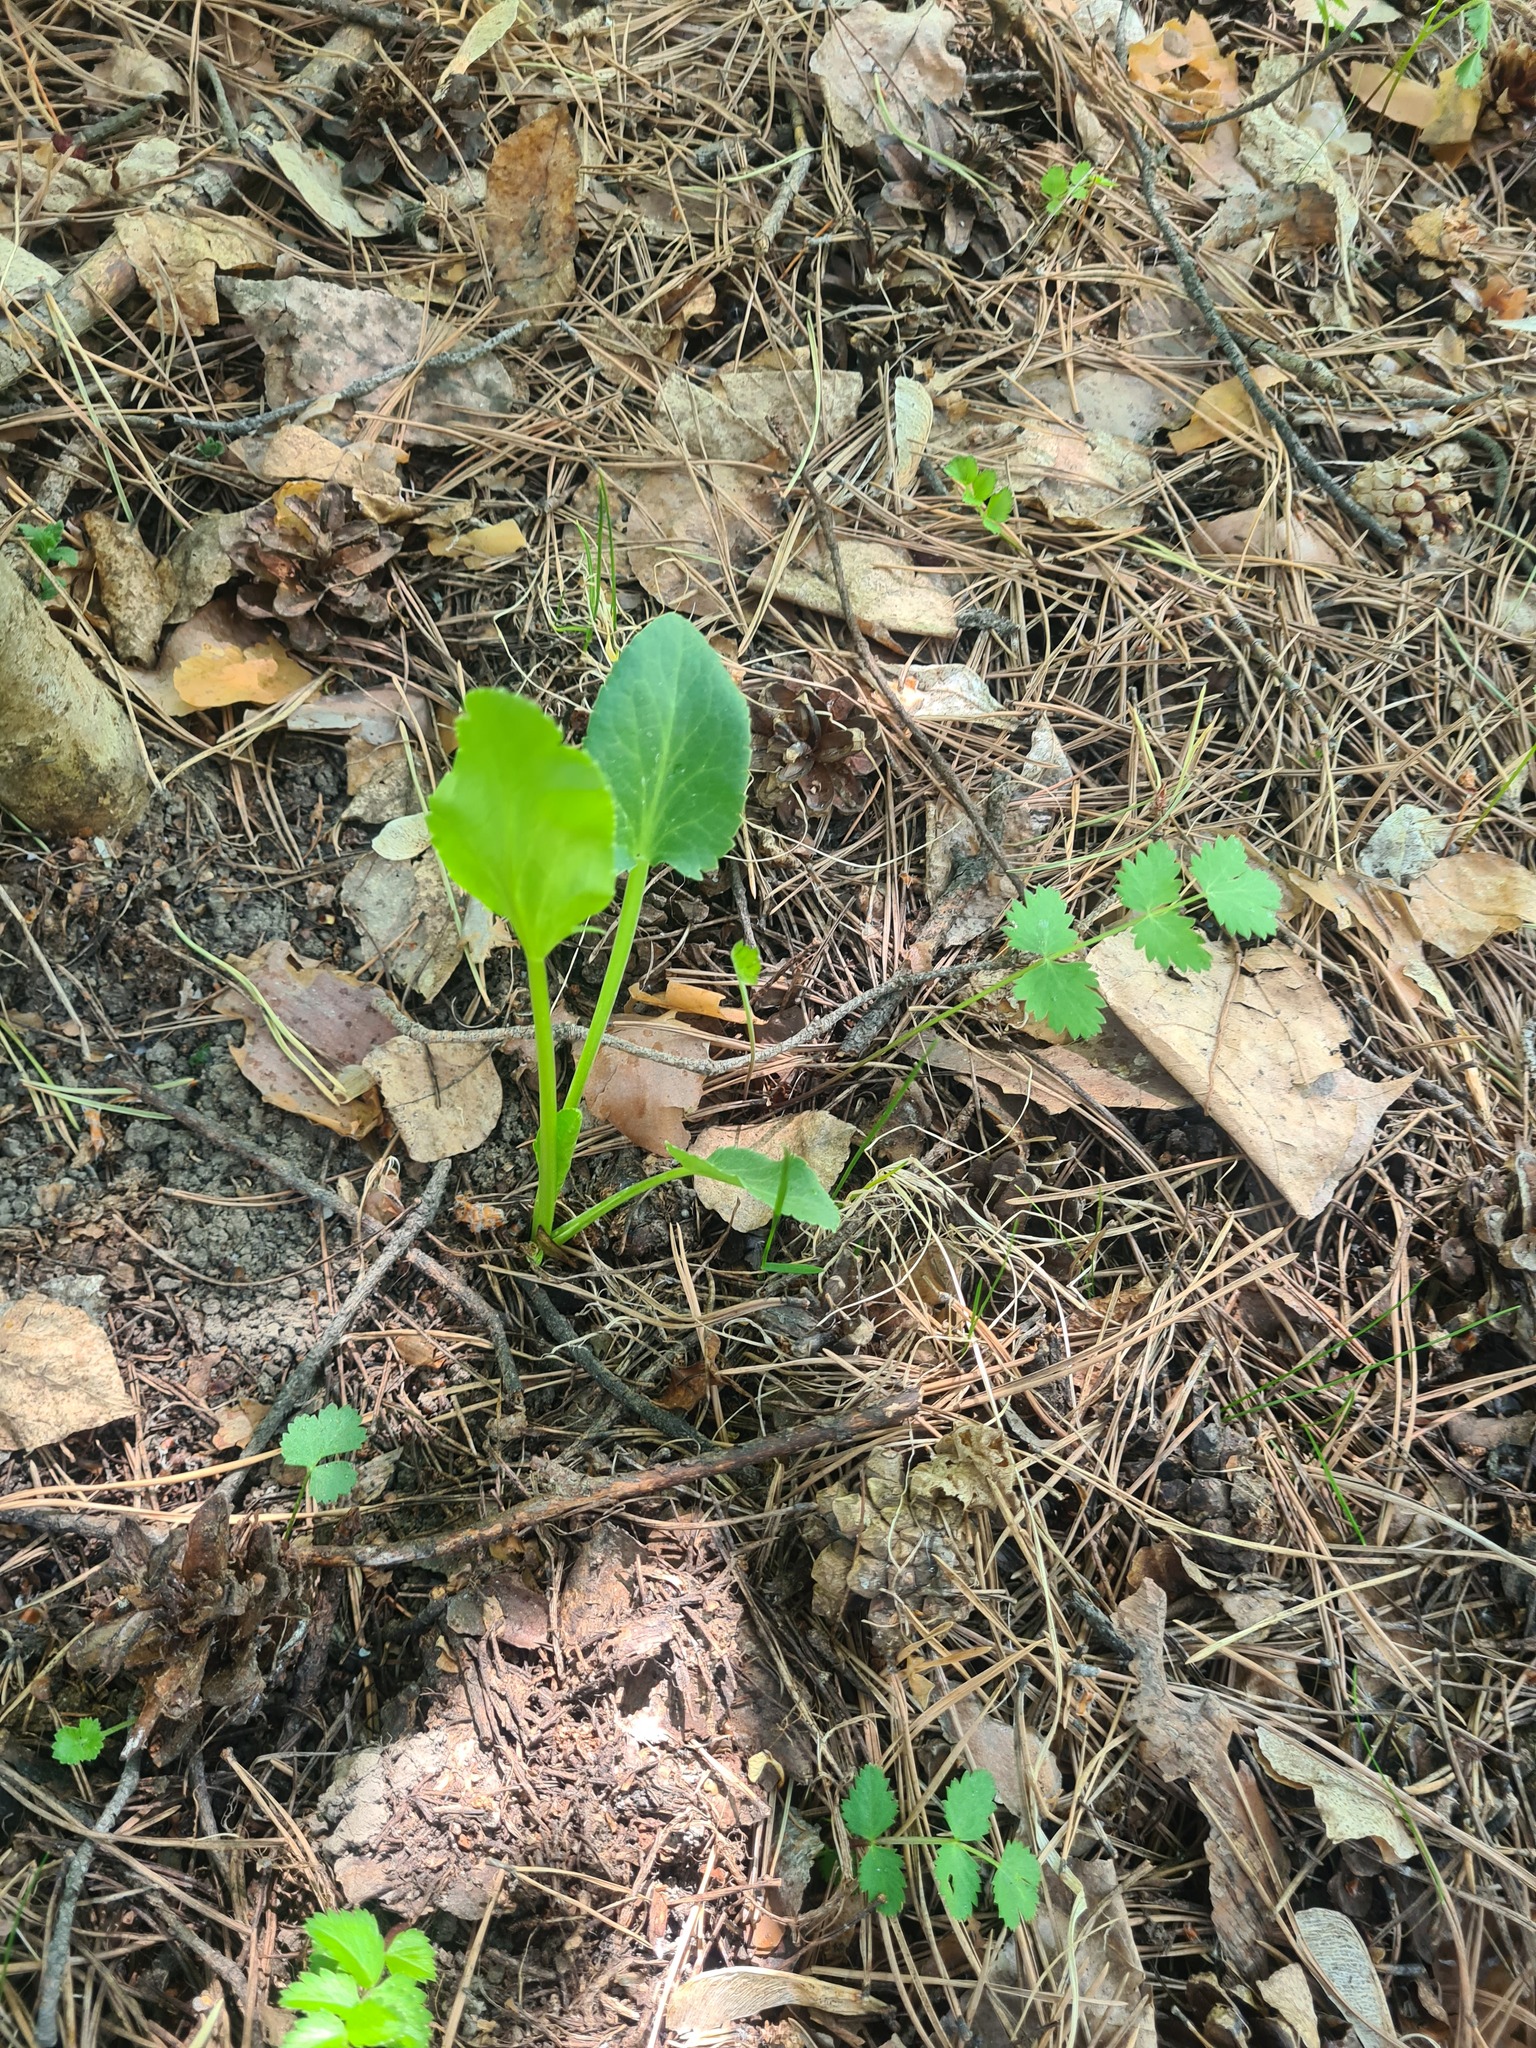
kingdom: Plantae
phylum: Tracheophyta
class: Magnoliopsida
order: Apiales
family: Apiaceae
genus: Eryngium
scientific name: Eryngium planum
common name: Blue eryngo
